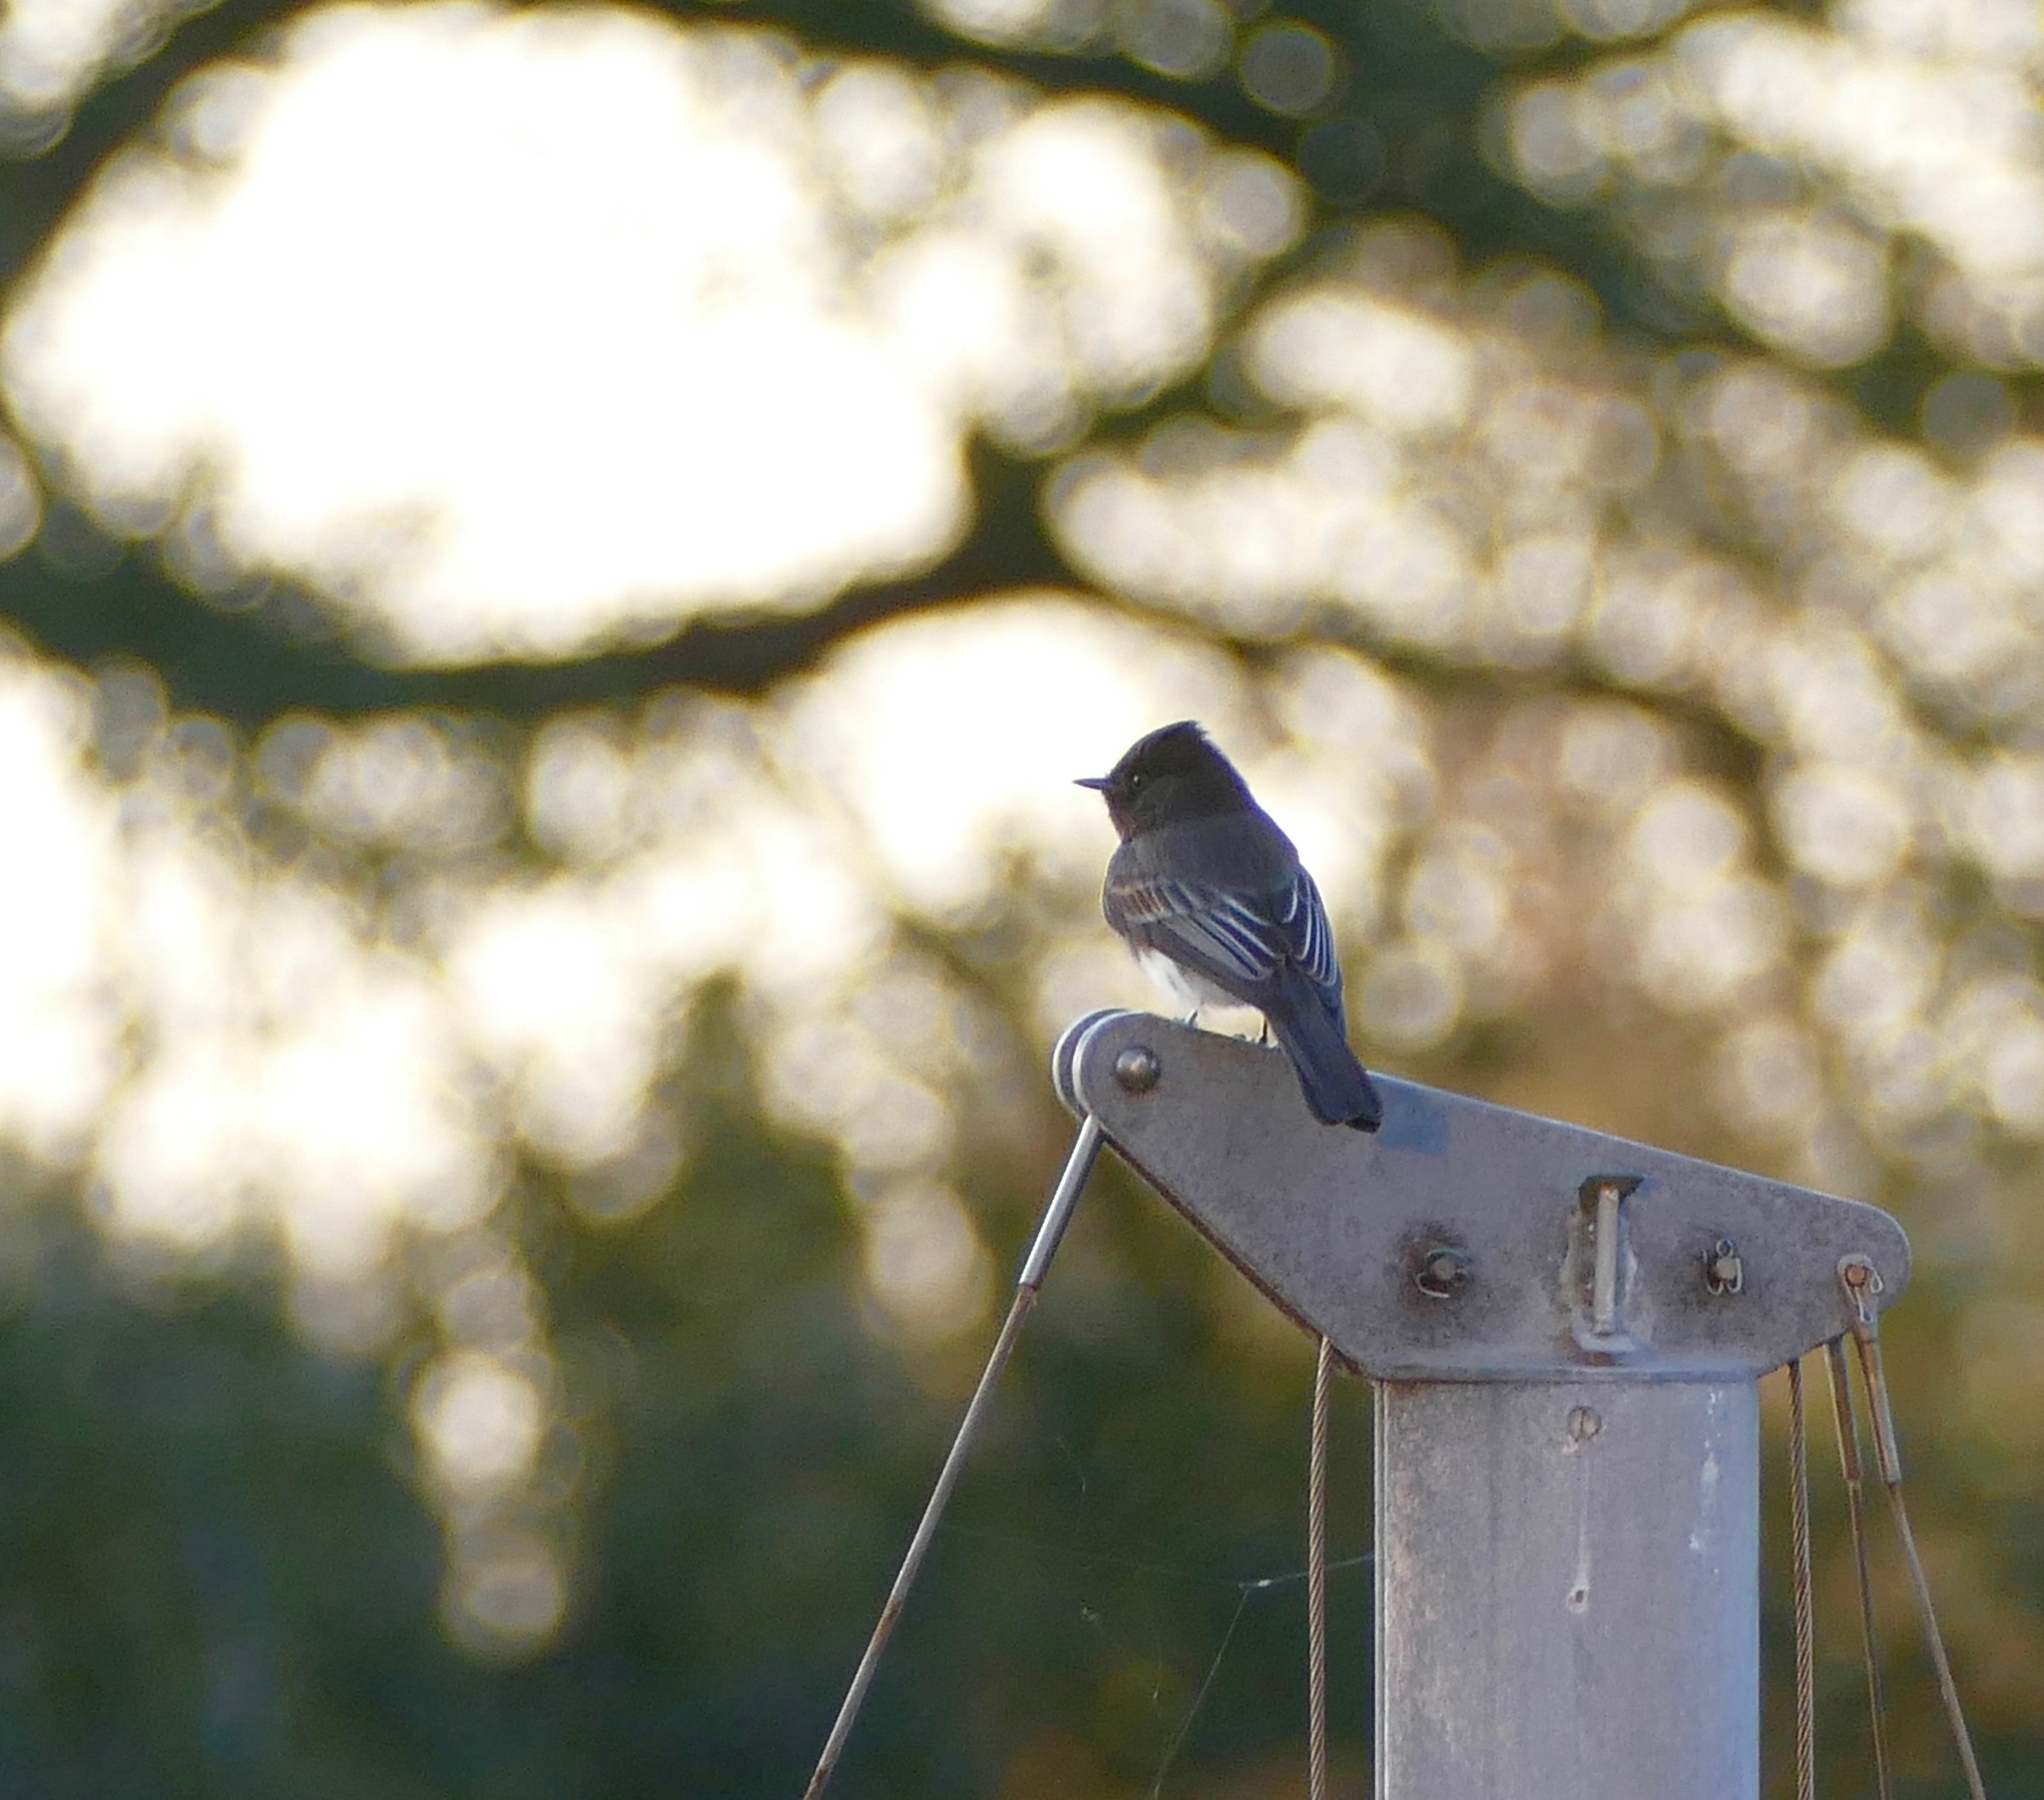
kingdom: Animalia
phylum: Chordata
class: Aves
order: Passeriformes
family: Tyrannidae
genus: Sayornis
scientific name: Sayornis nigricans
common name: Black phoebe
